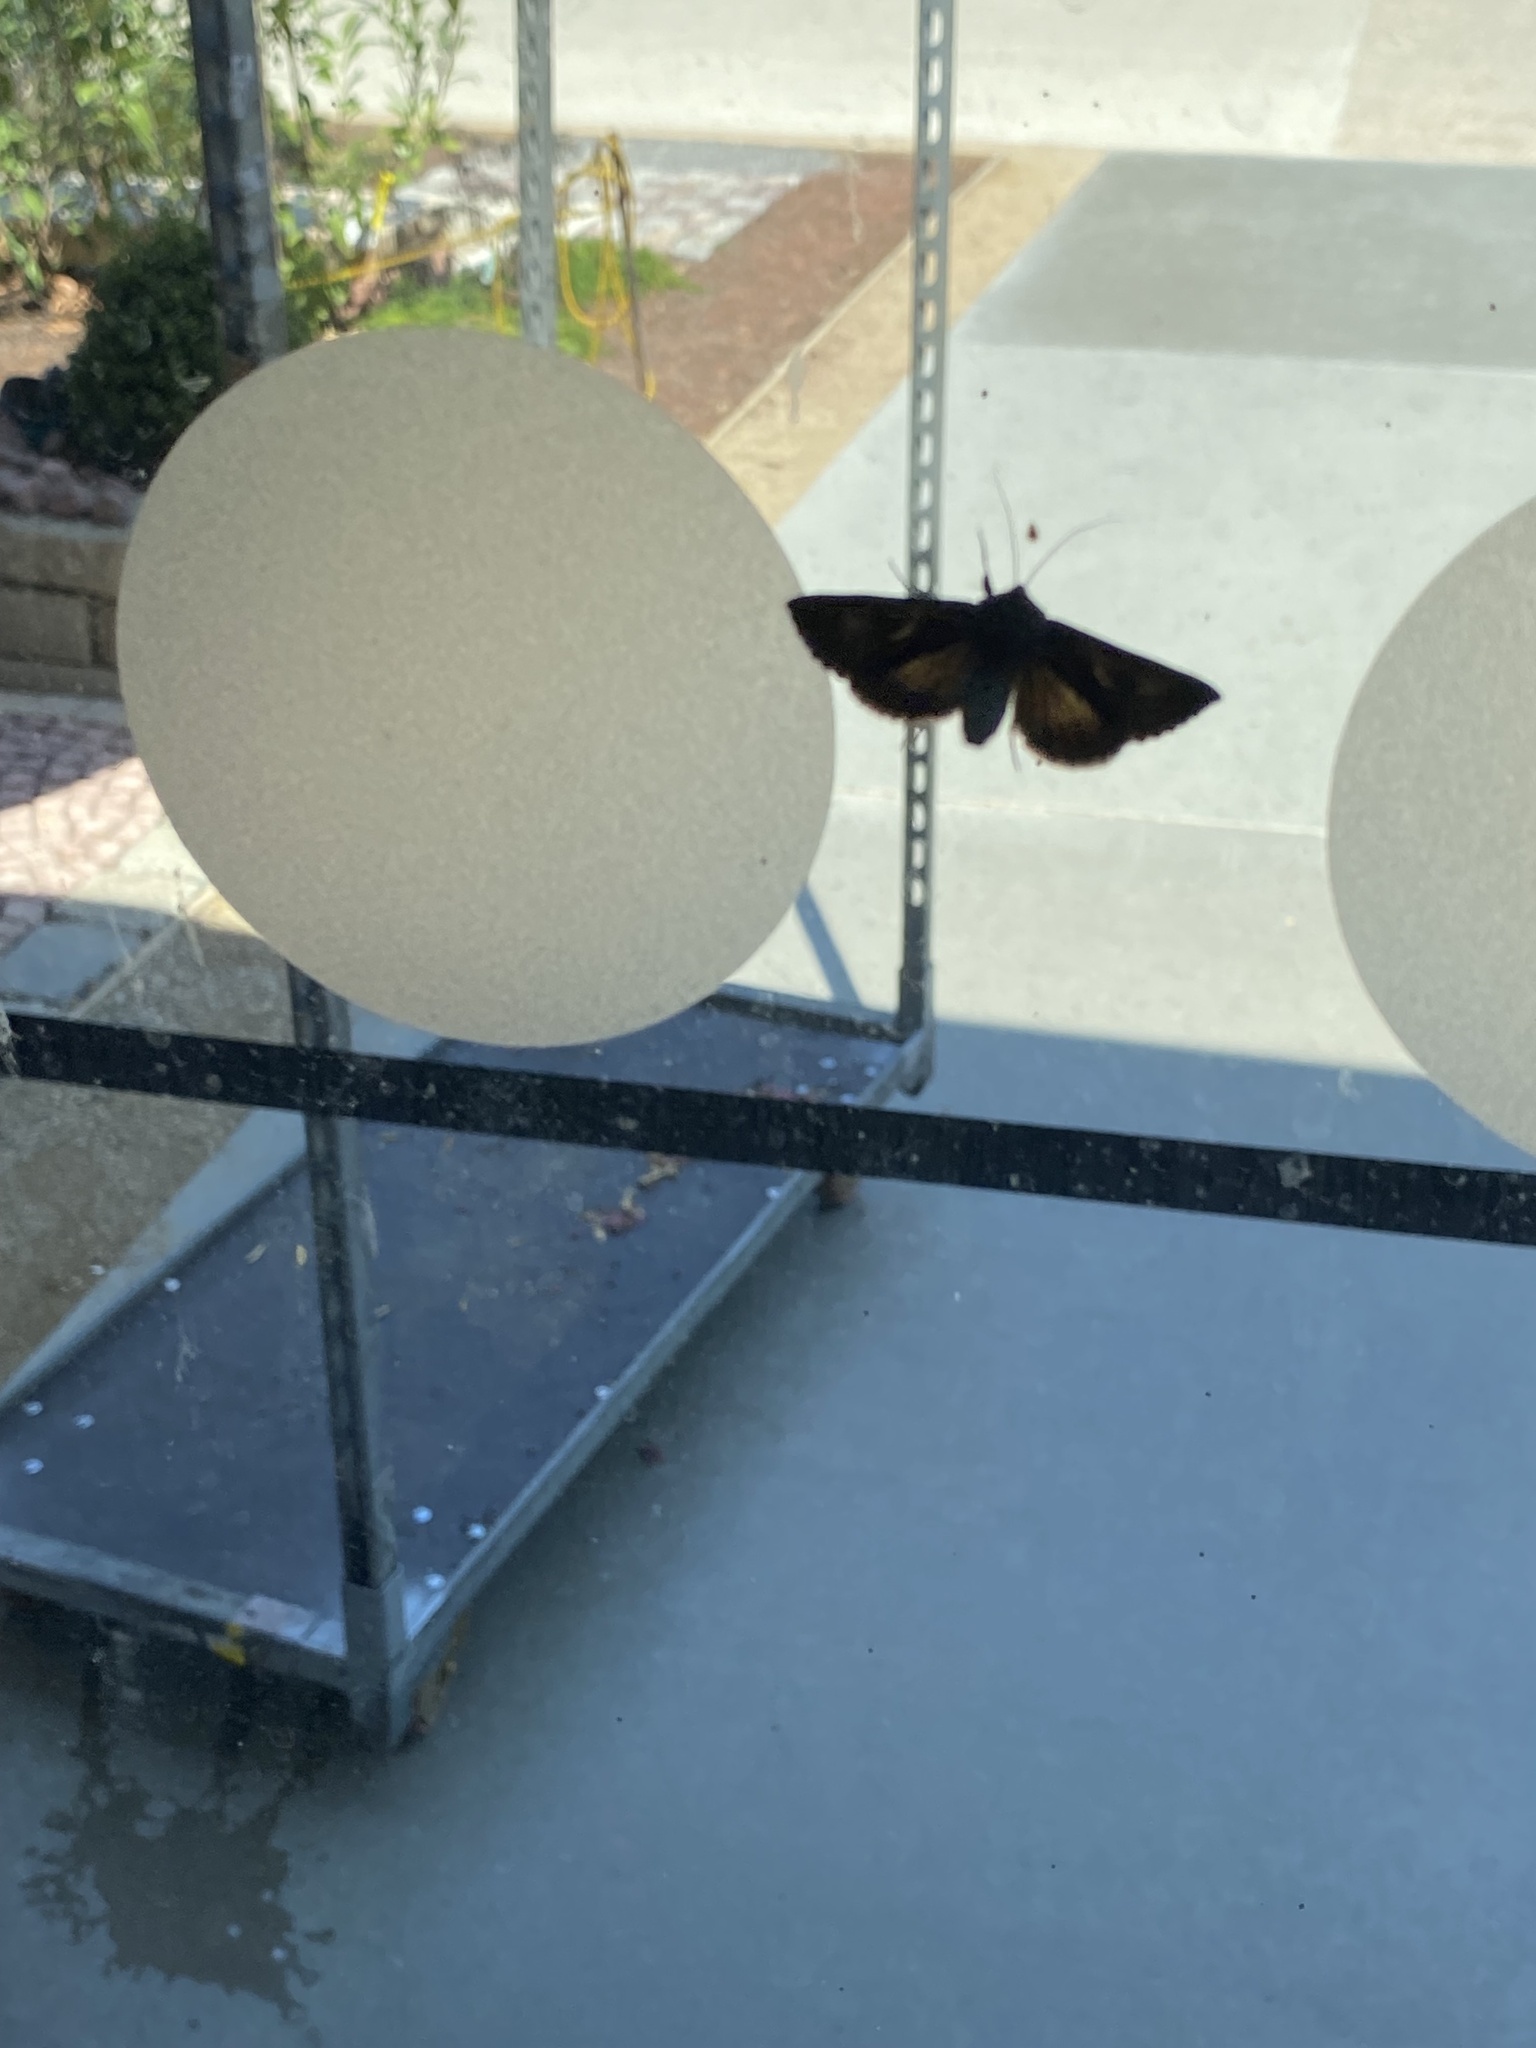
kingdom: Animalia
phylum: Arthropoda
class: Insecta
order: Lepidoptera
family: Noctuidae
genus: Autographa
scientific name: Autographa gamma
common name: Silver y
